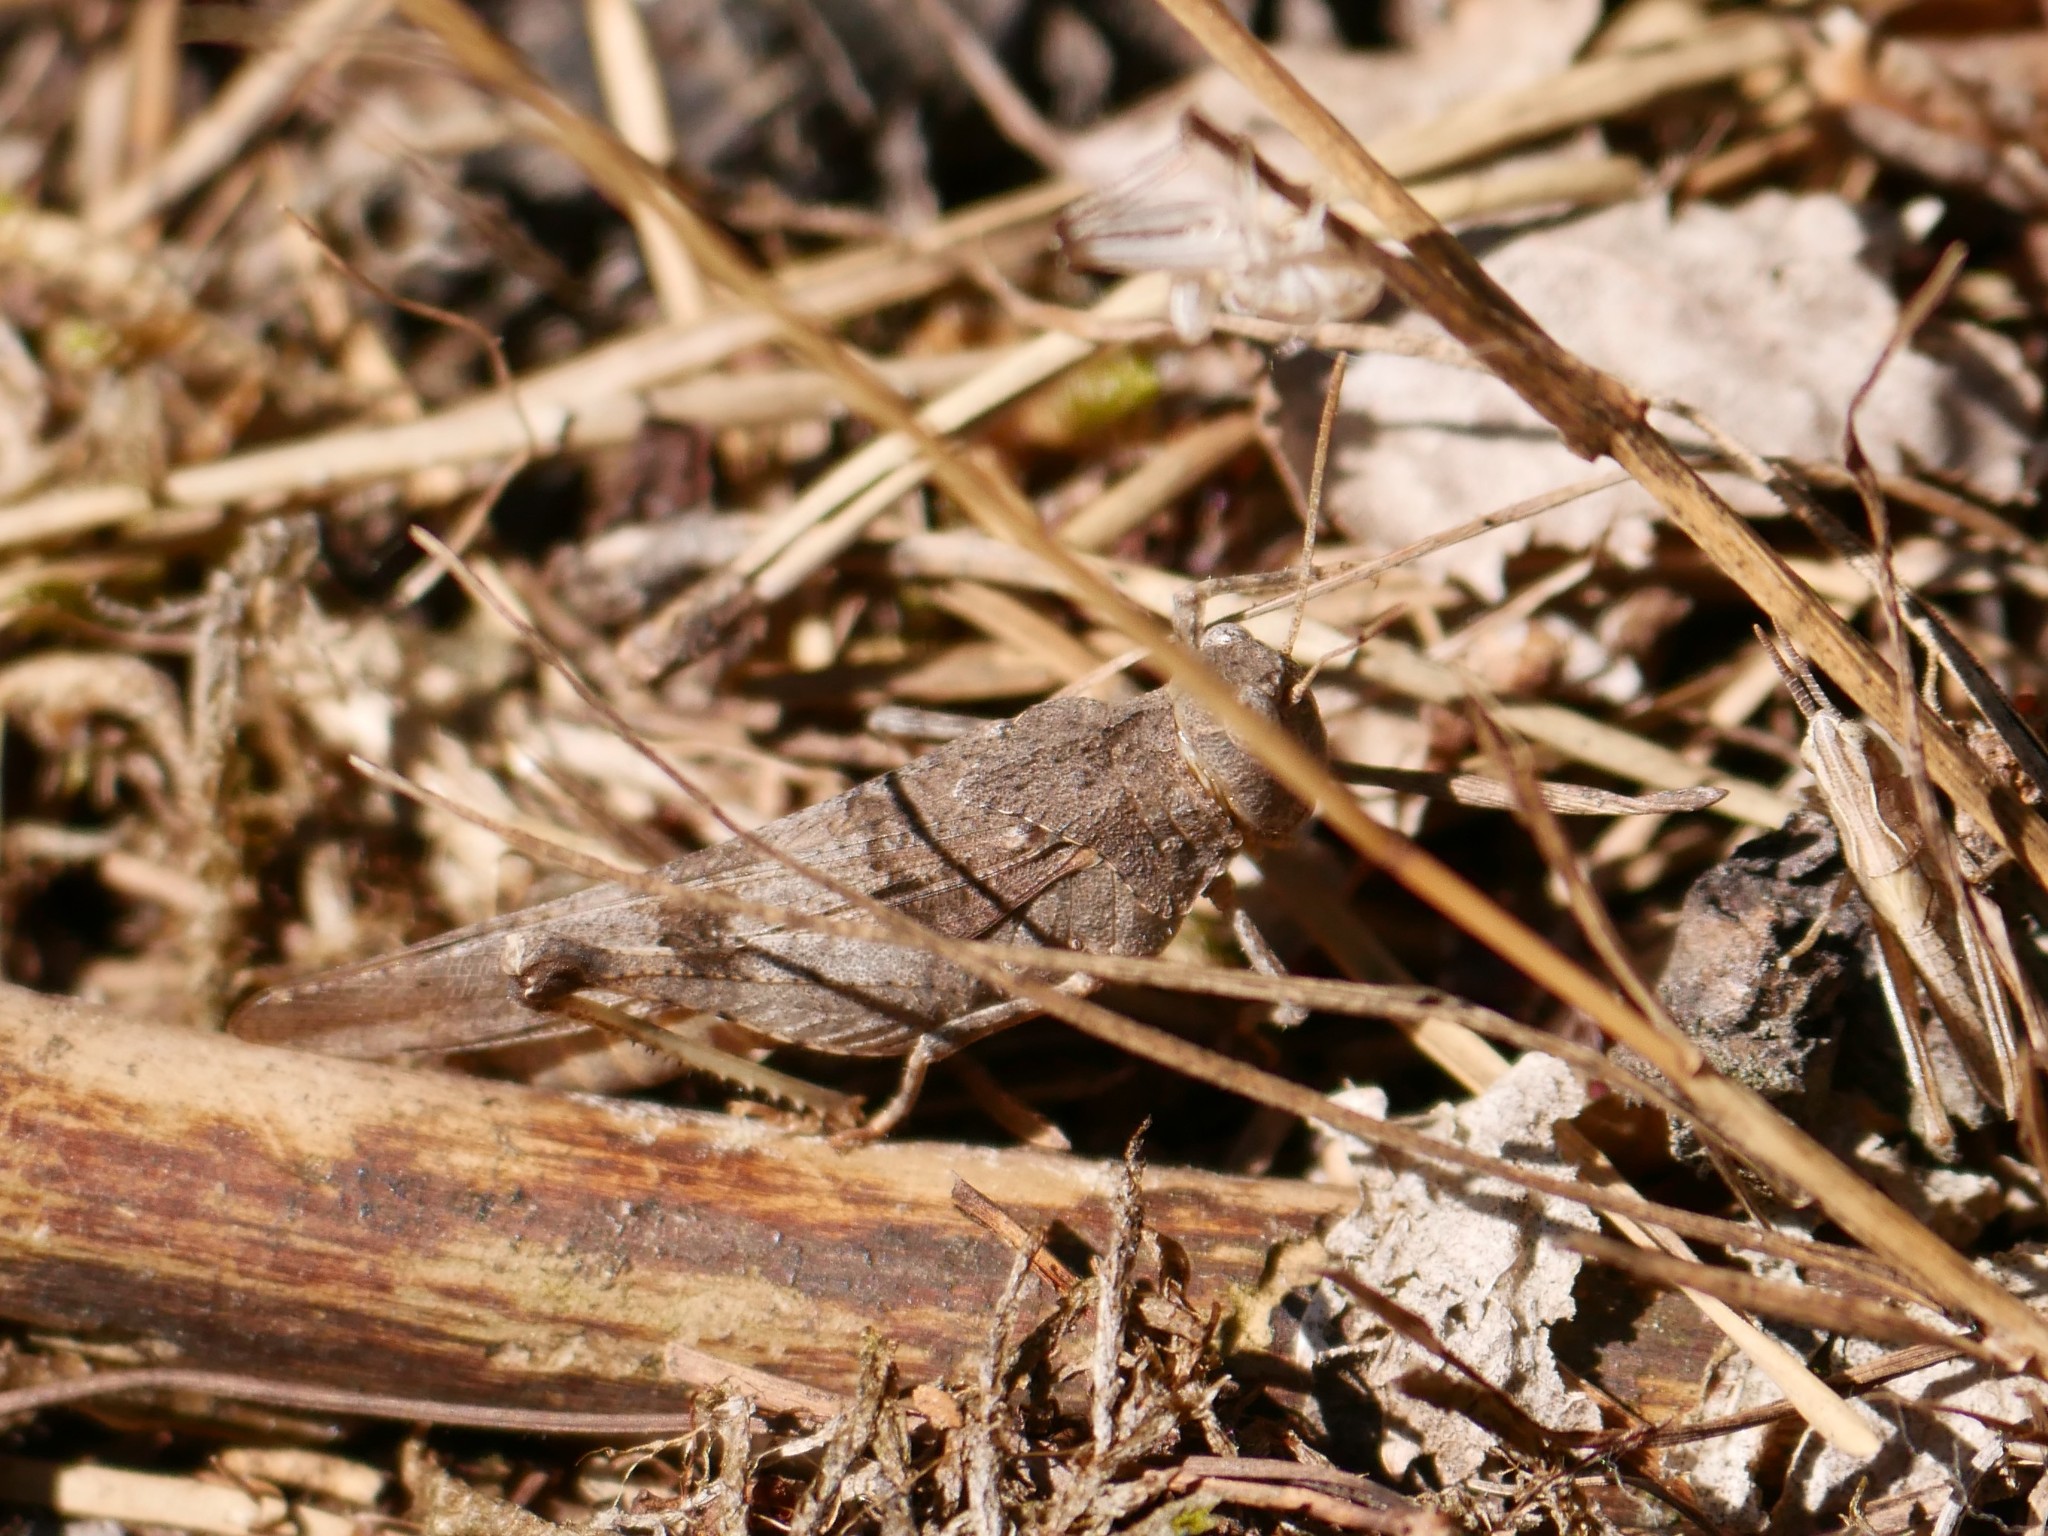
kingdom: Animalia
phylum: Arthropoda
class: Insecta
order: Orthoptera
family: Acrididae
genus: Oedipoda
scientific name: Oedipoda caerulescens
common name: Blue-winged grasshopper
